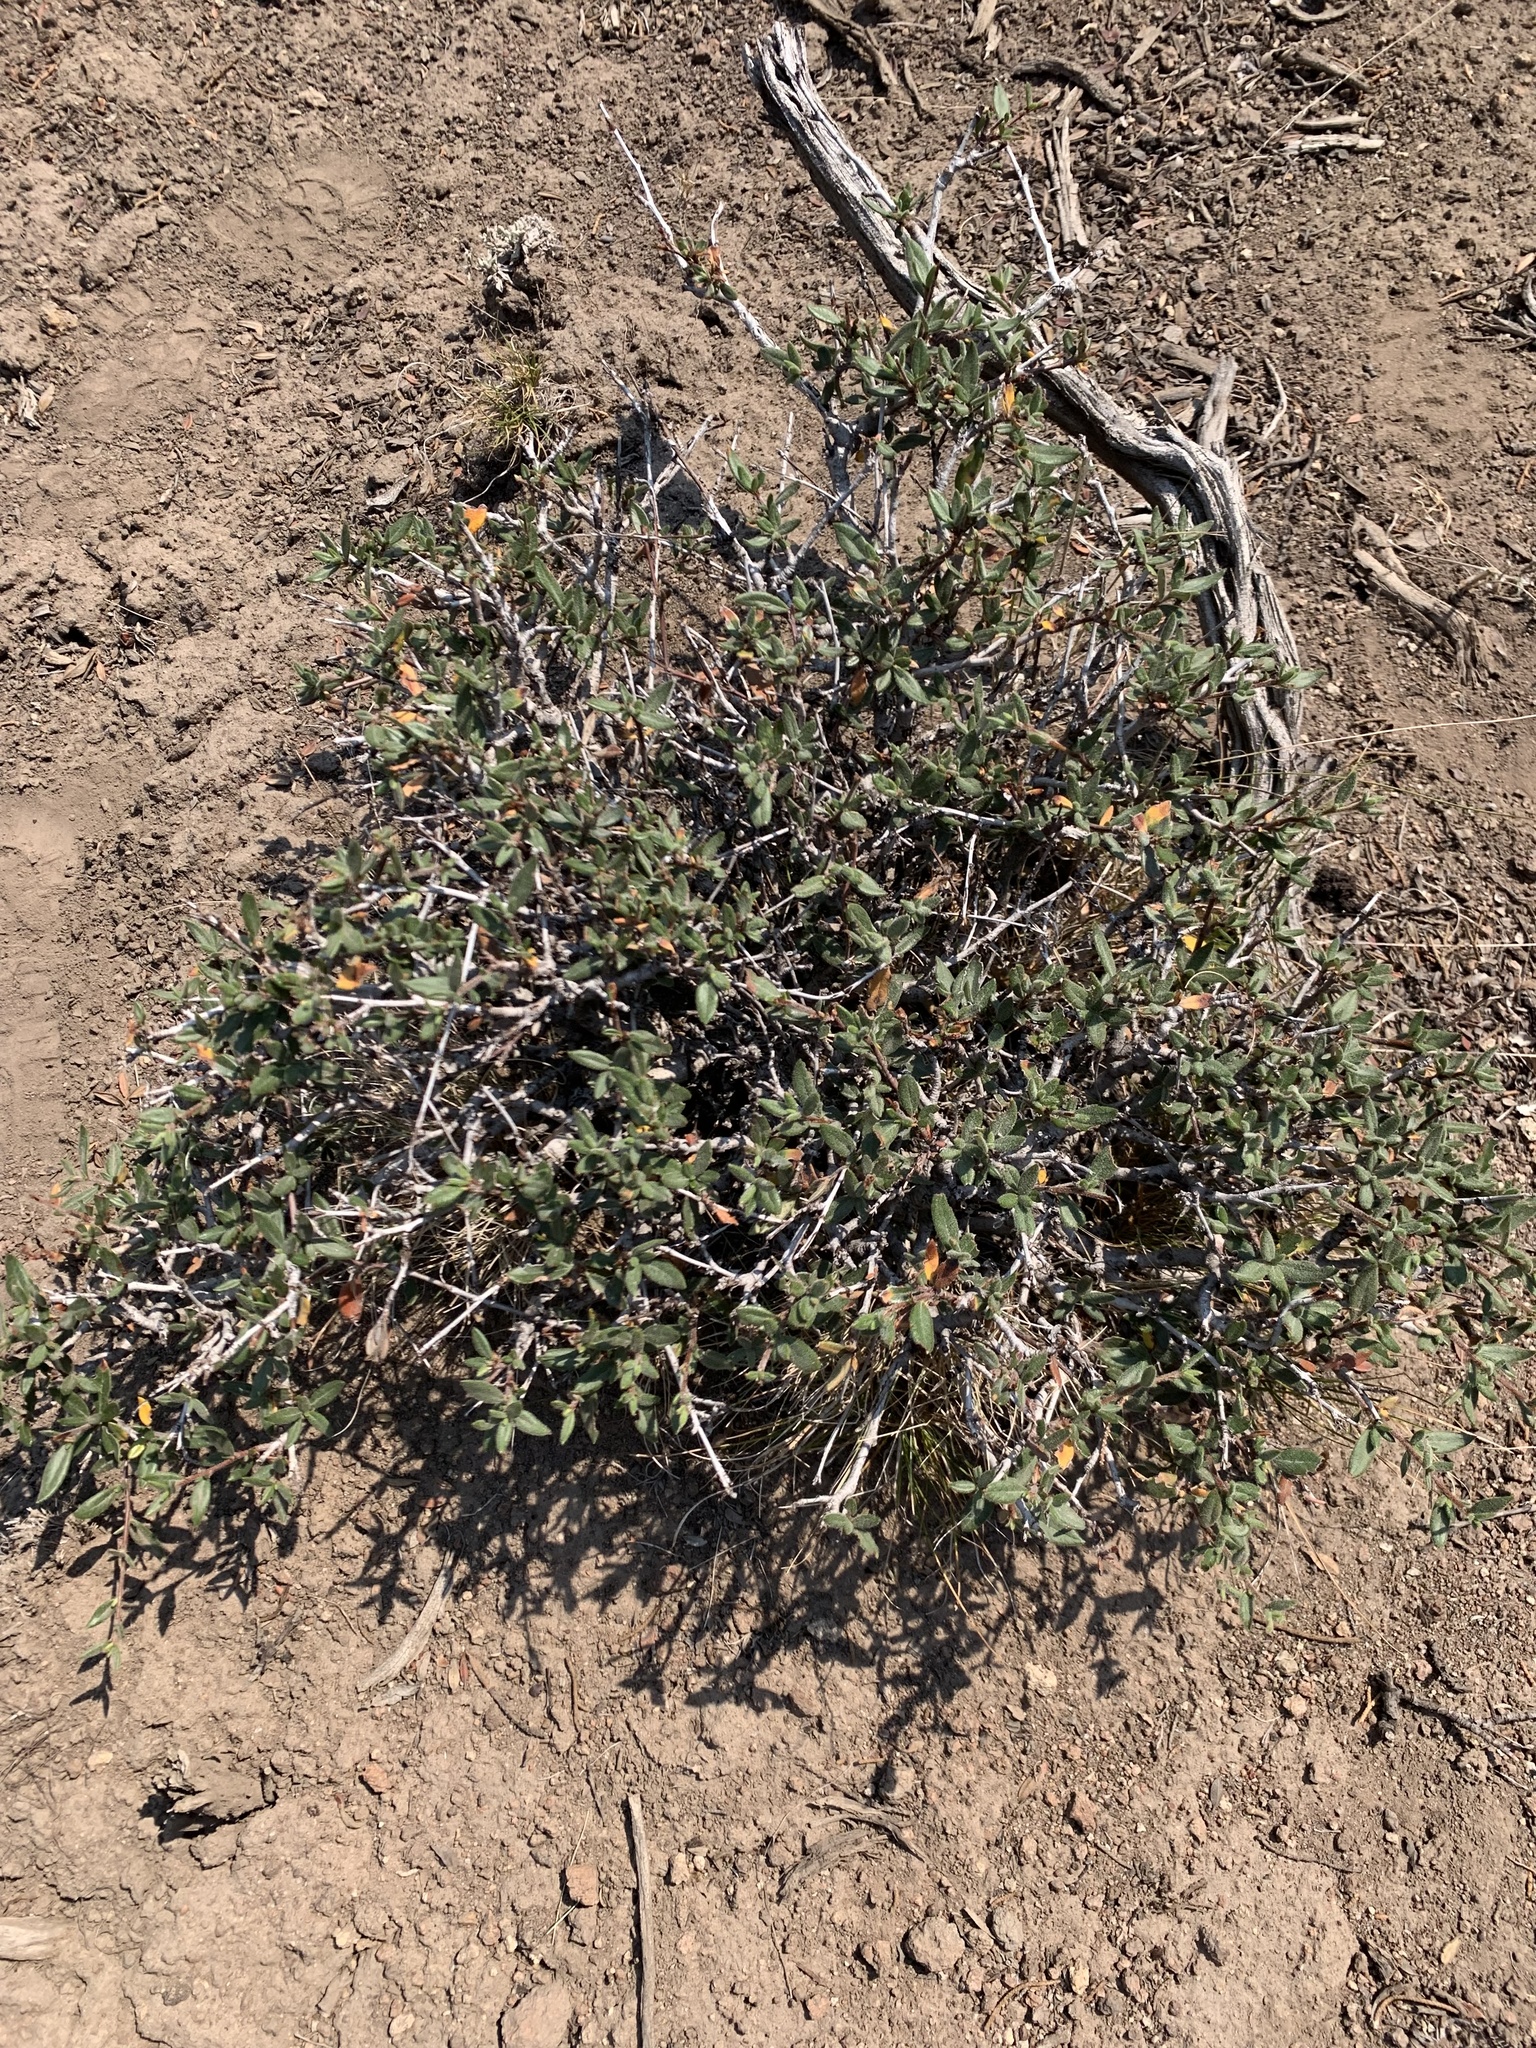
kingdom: Plantae
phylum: Tracheophyta
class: Magnoliopsida
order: Rosales
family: Rosaceae
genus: Cercocarpus
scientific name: Cercocarpus ledifolius
